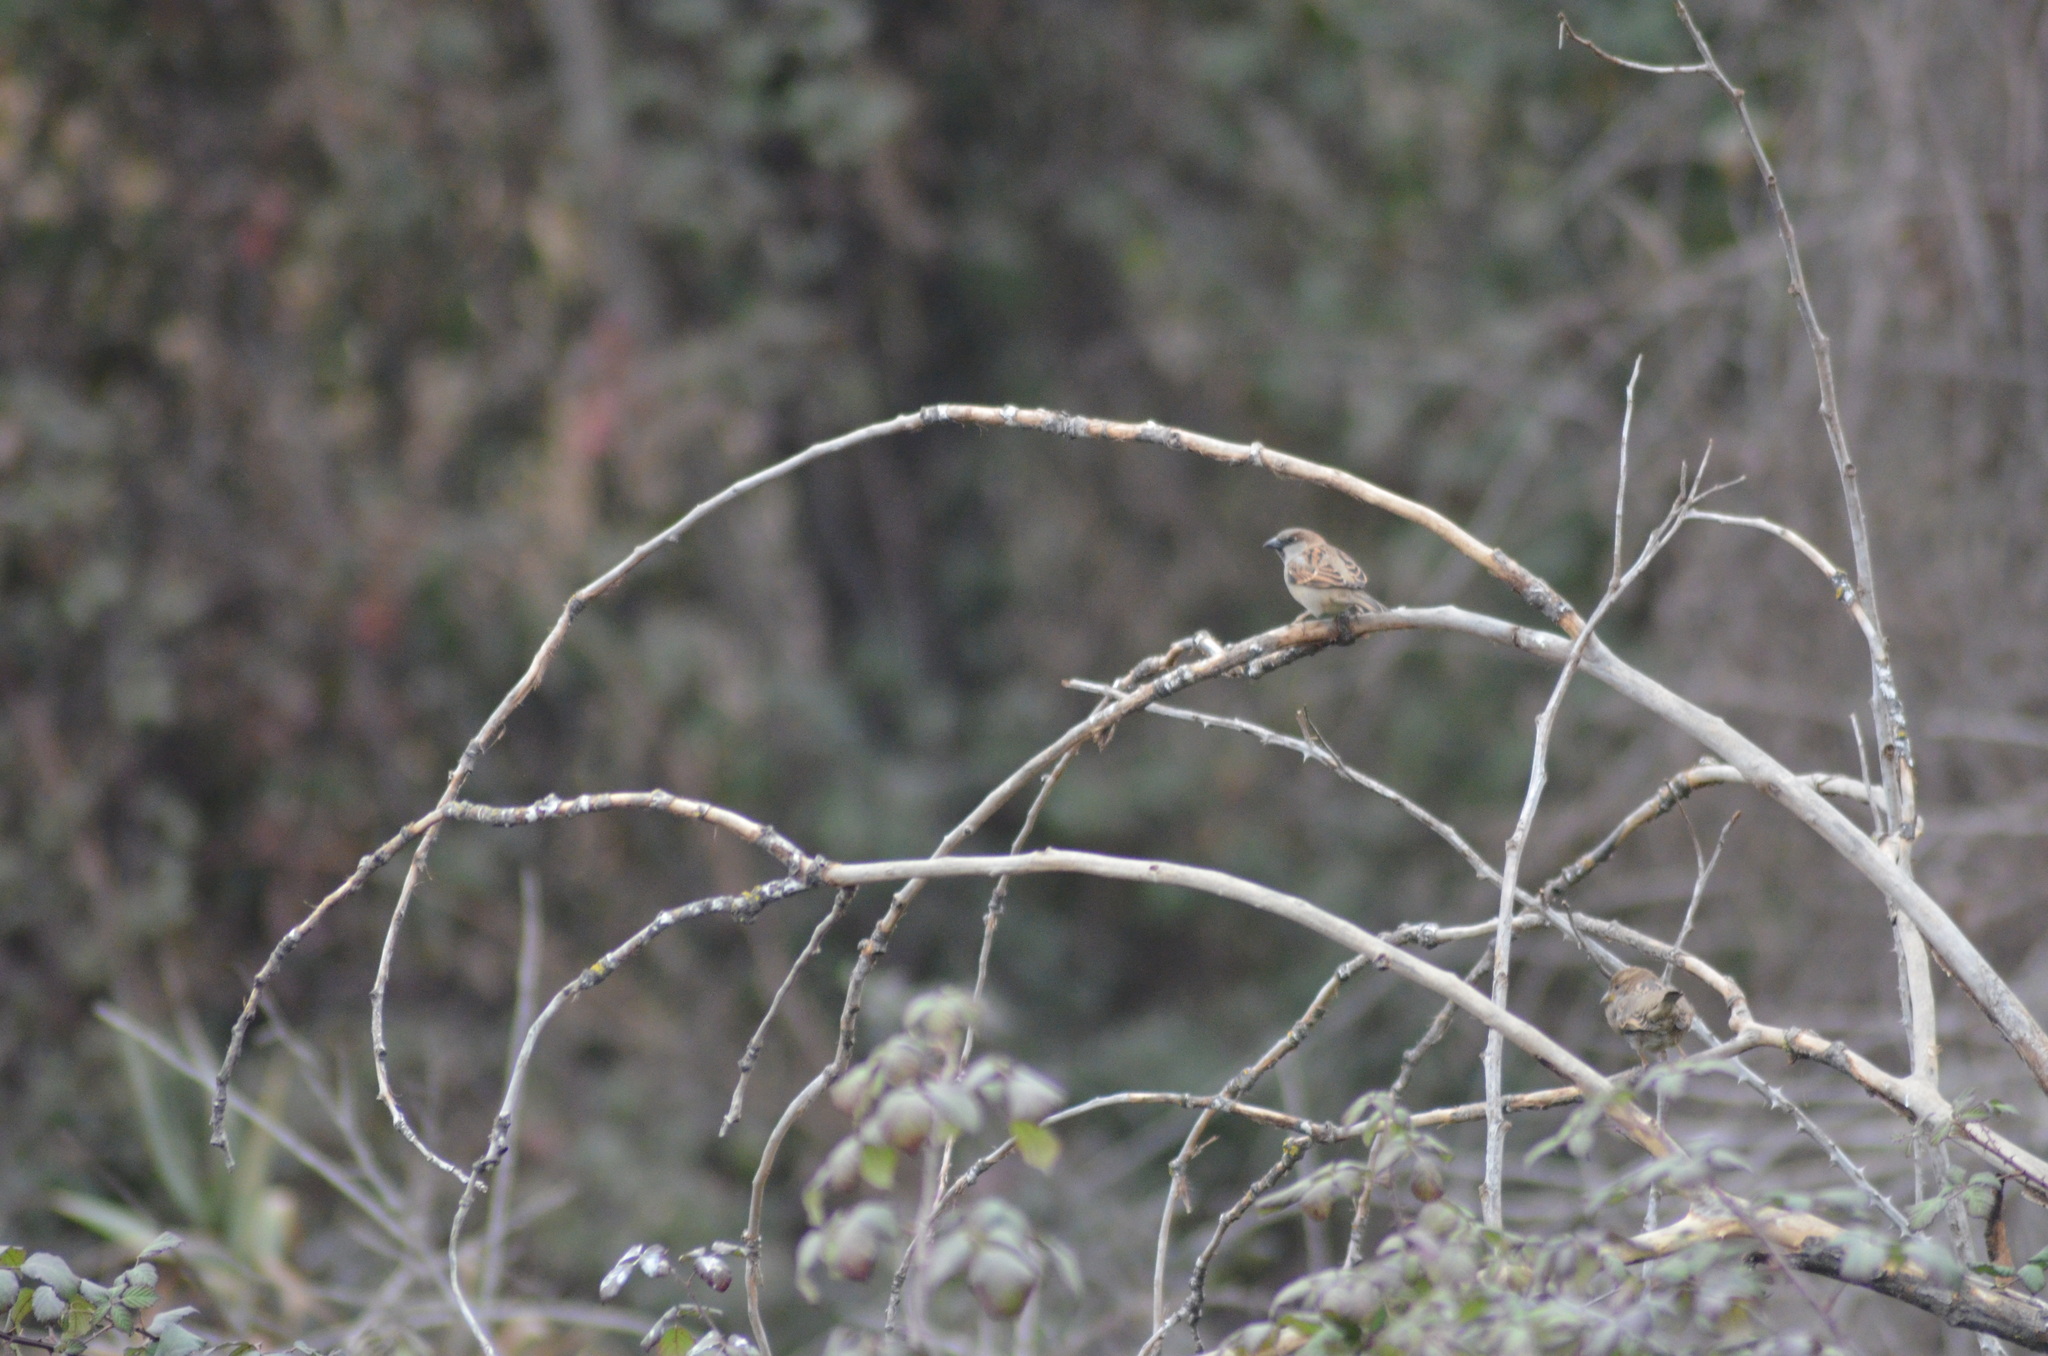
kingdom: Animalia
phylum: Chordata
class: Aves
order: Passeriformes
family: Passeridae
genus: Passer
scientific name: Passer domesticus
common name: House sparrow
